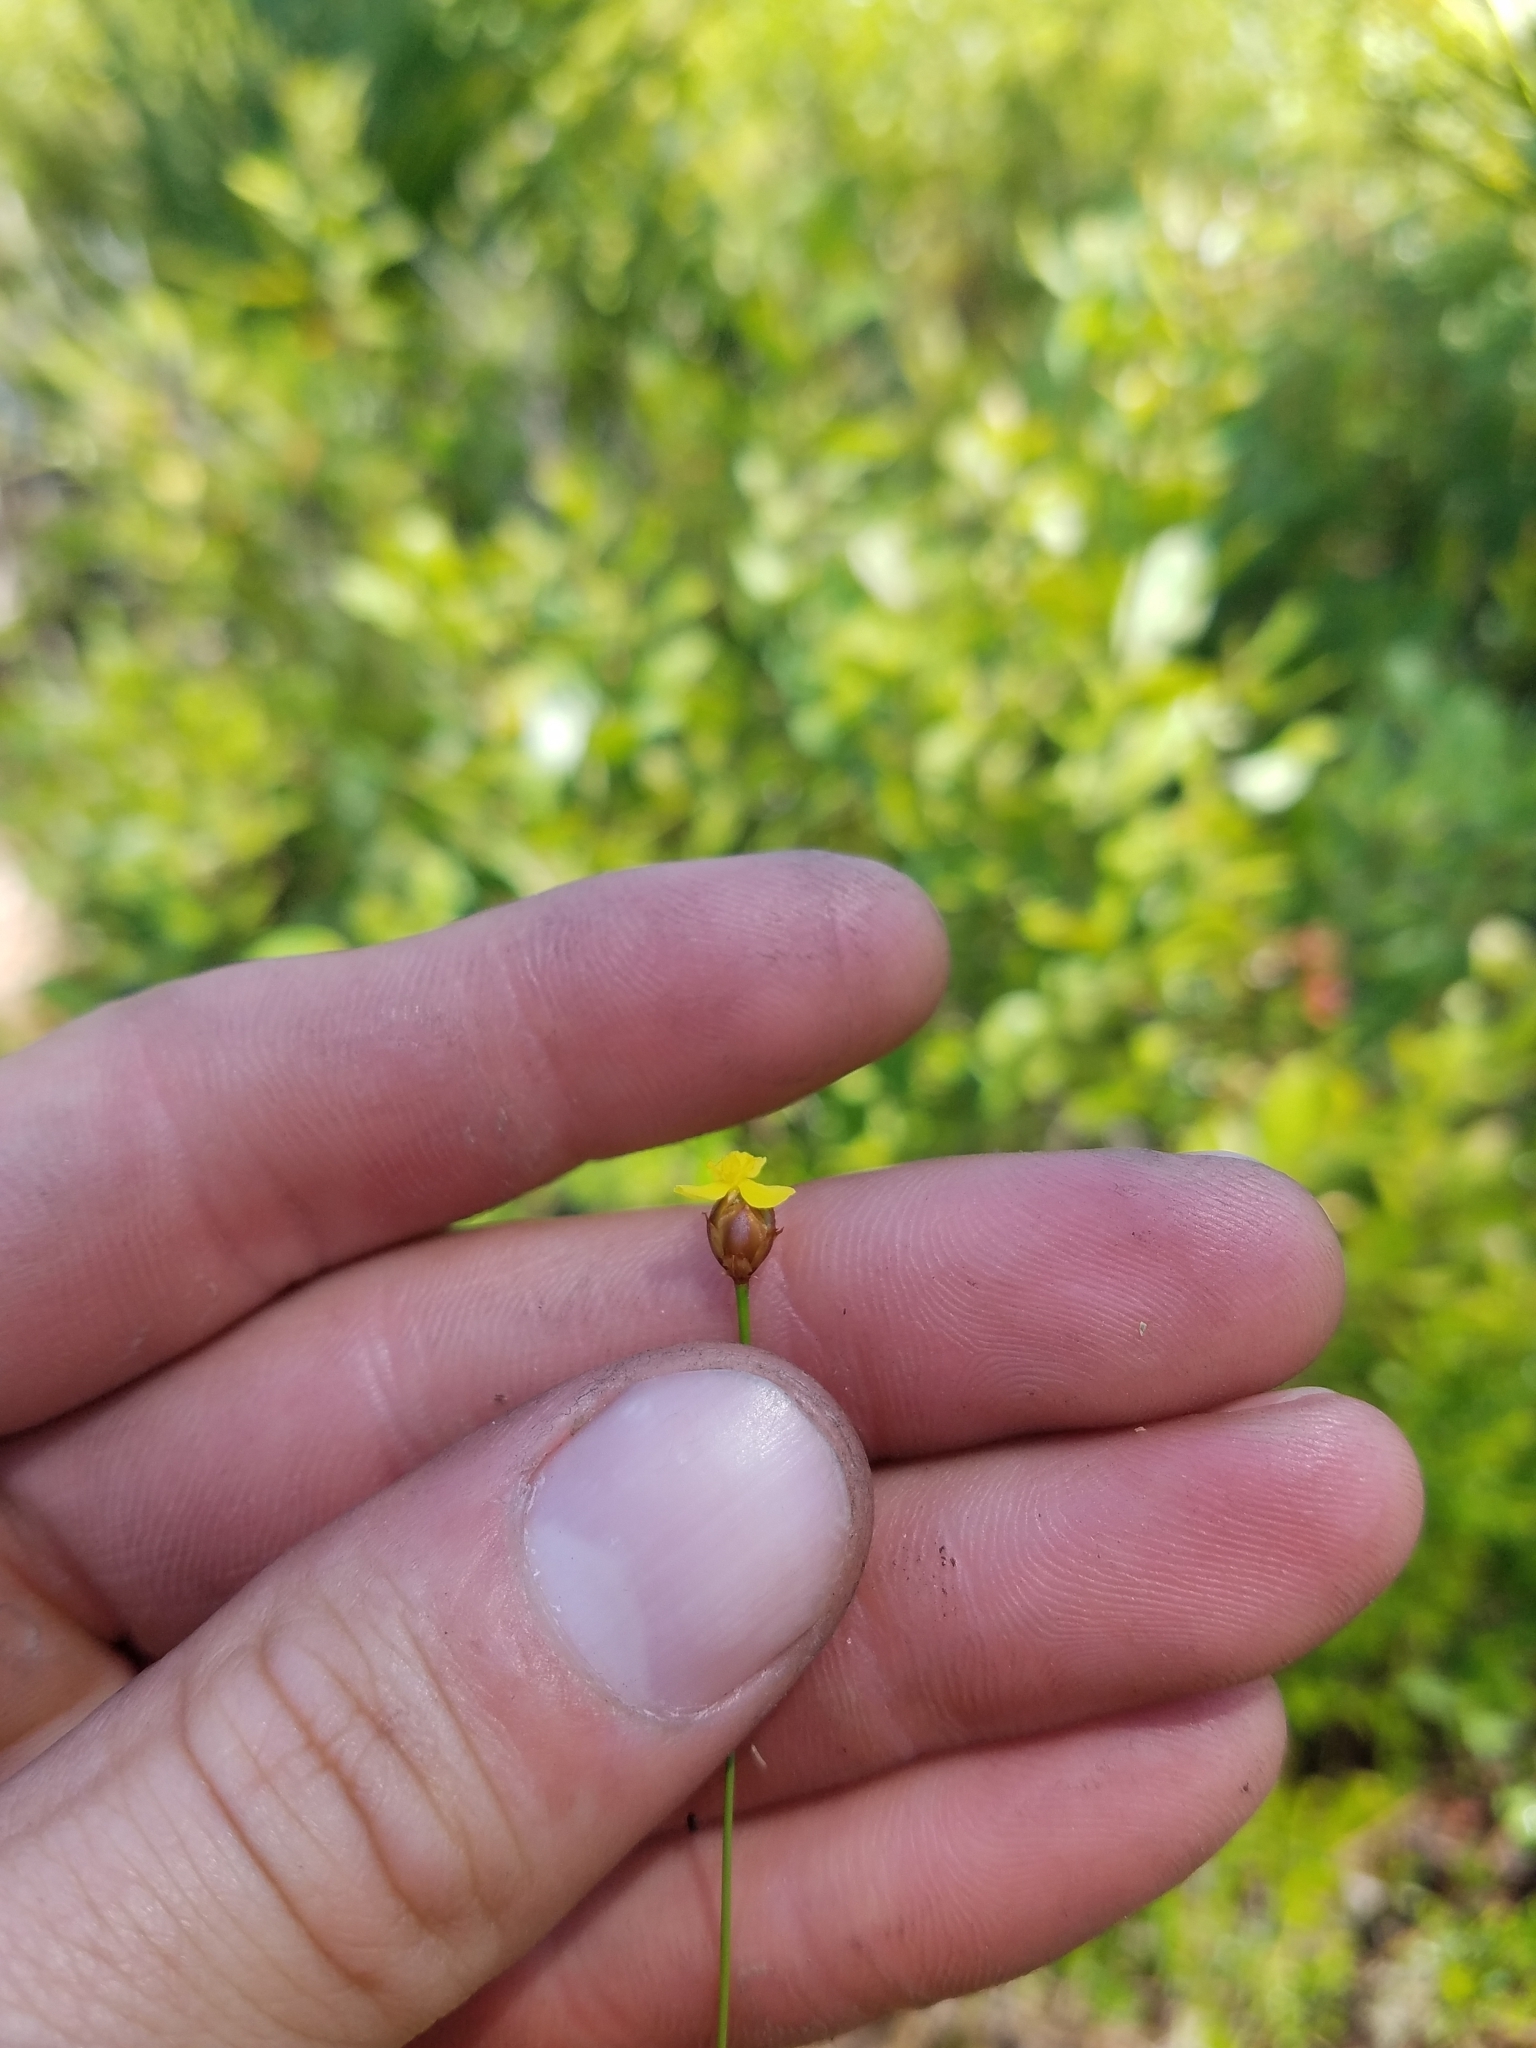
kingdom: Plantae
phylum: Tracheophyta
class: Liliopsida
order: Poales
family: Xyridaceae
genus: Xyris
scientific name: Xyris brevifolia
